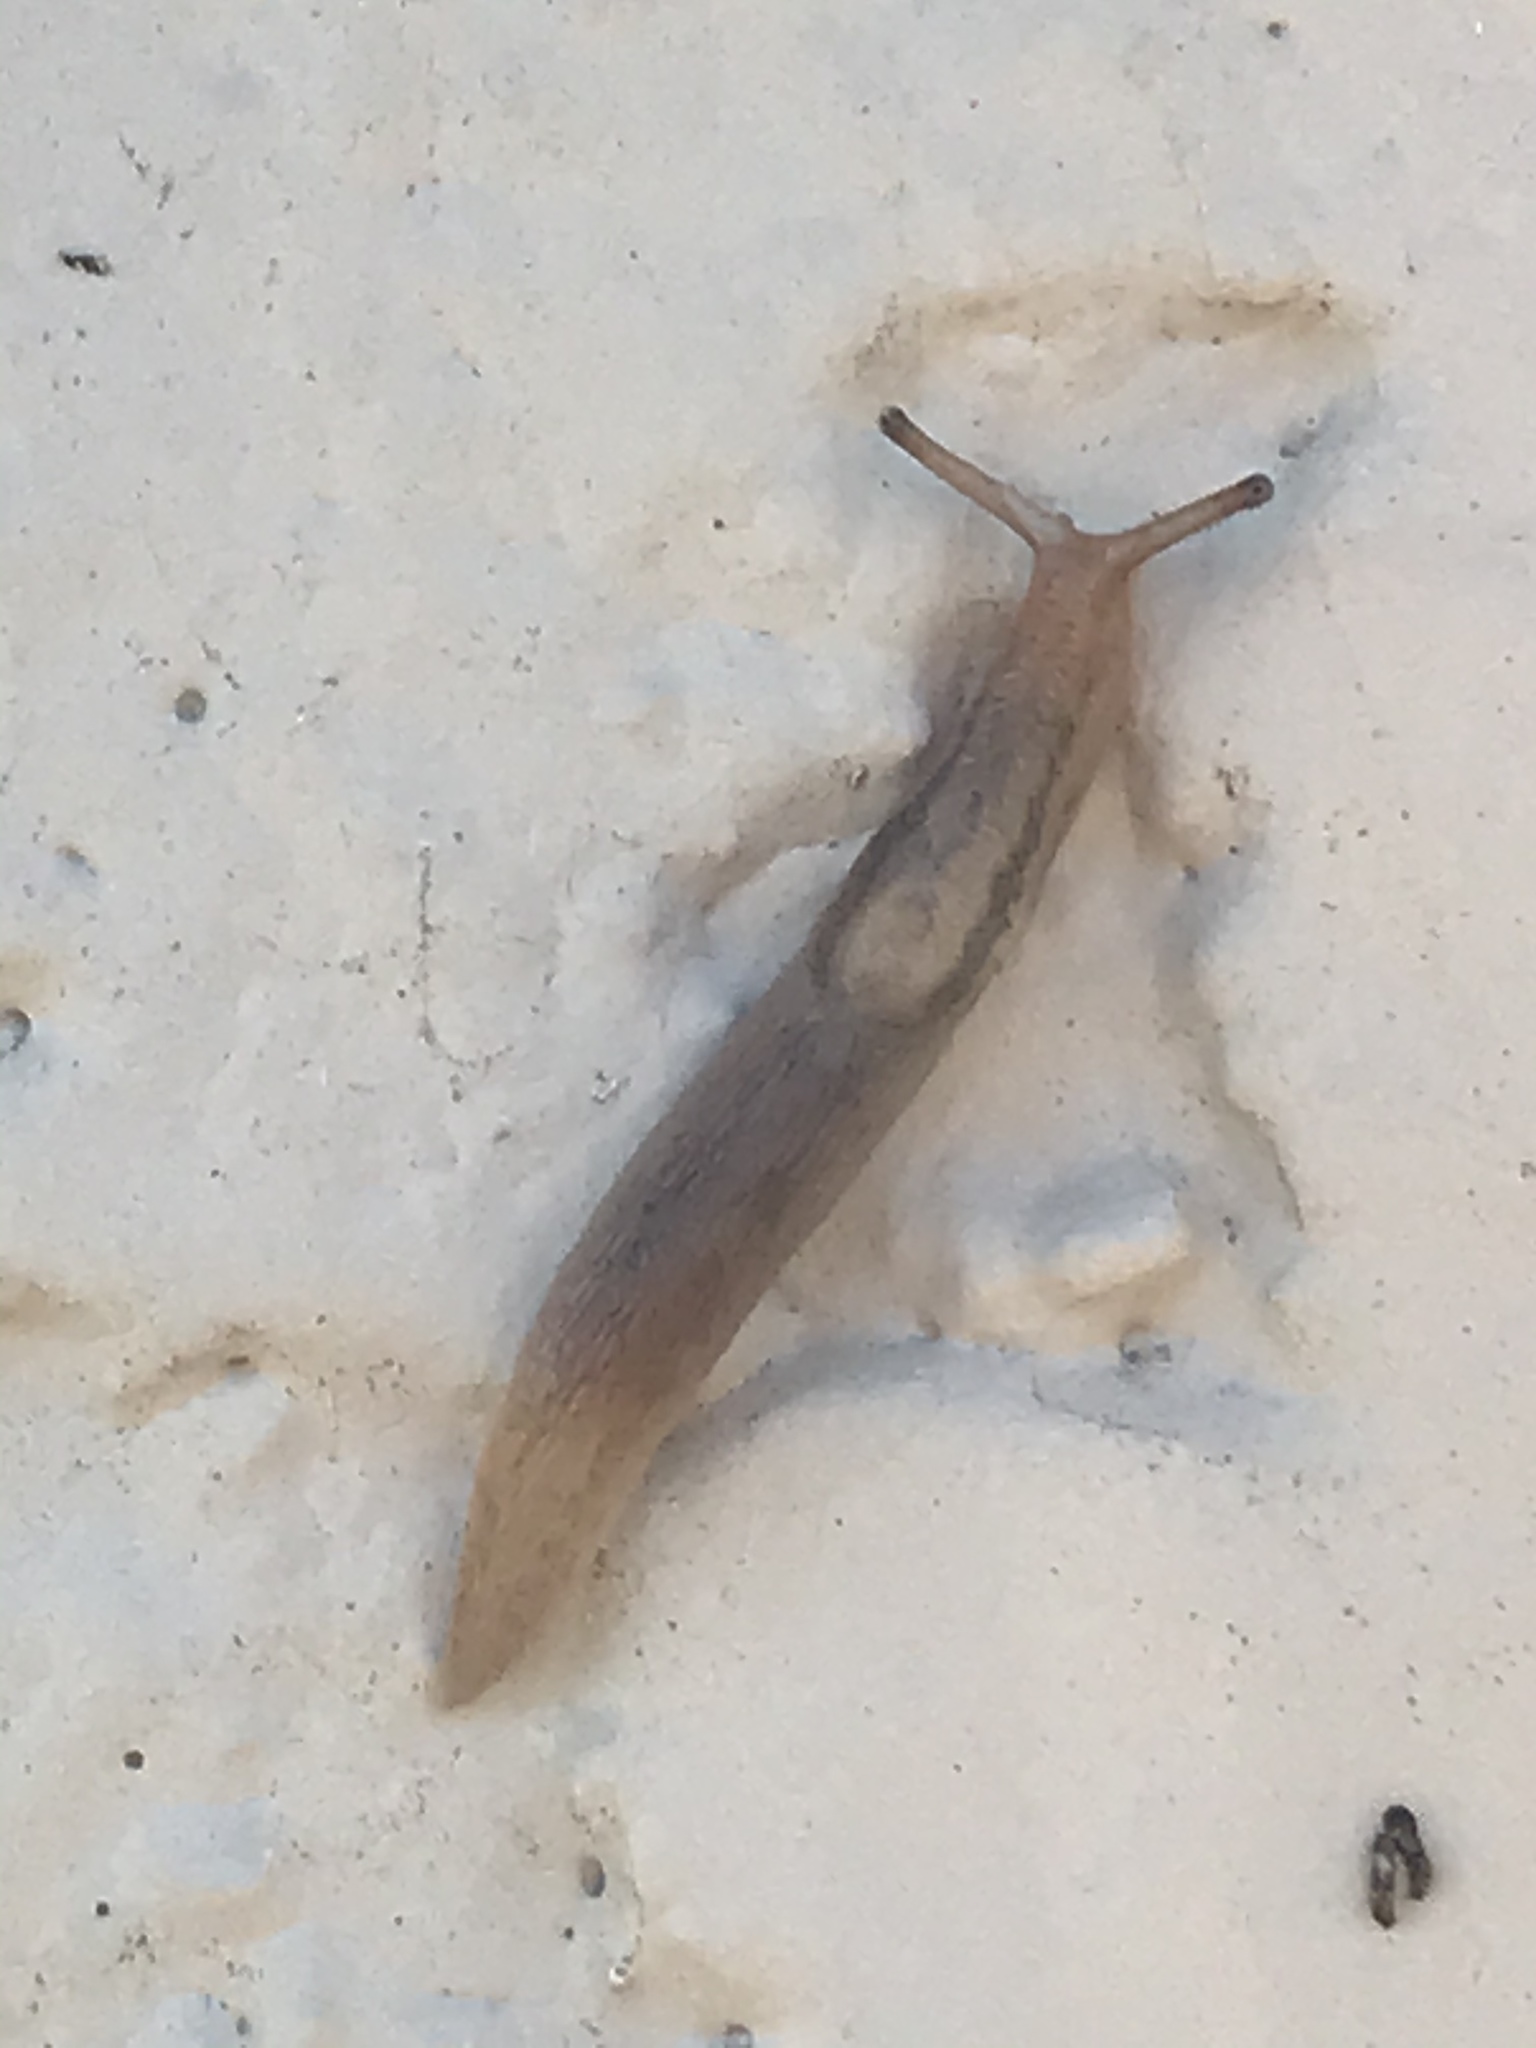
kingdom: Animalia
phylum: Mollusca
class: Gastropoda
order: Stylommatophora
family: Limacidae
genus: Ambigolimax
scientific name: Ambigolimax
